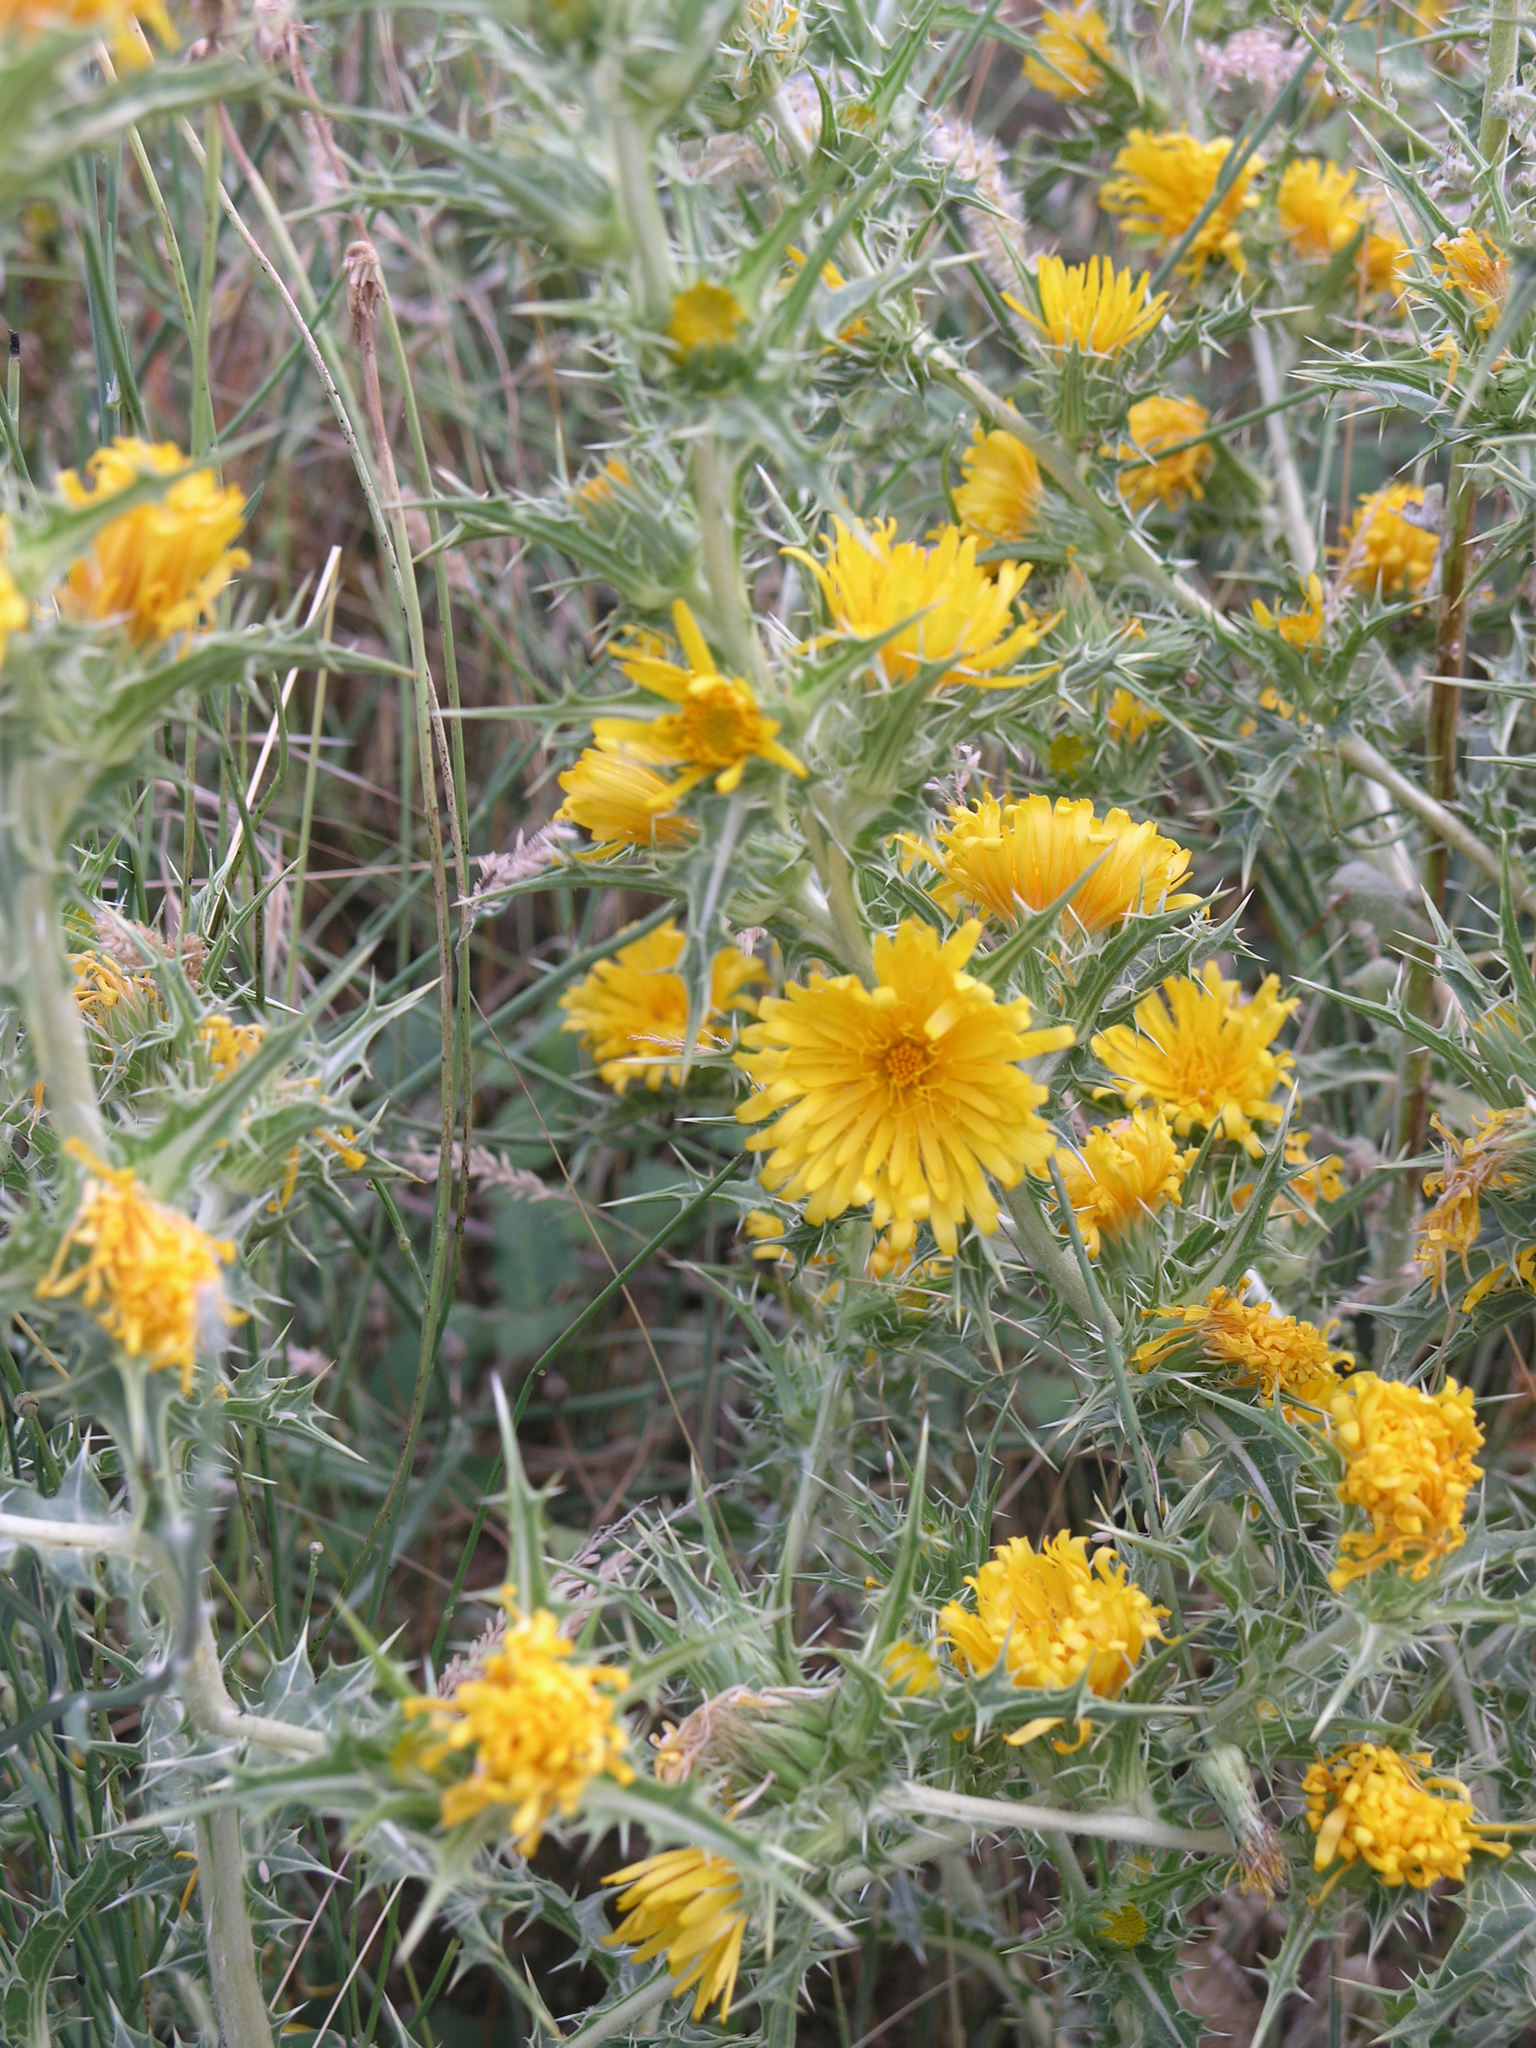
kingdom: Plantae
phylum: Tracheophyta
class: Magnoliopsida
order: Asterales
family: Asteraceae
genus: Scolymus
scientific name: Scolymus hispanicus
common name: Golden thistle
